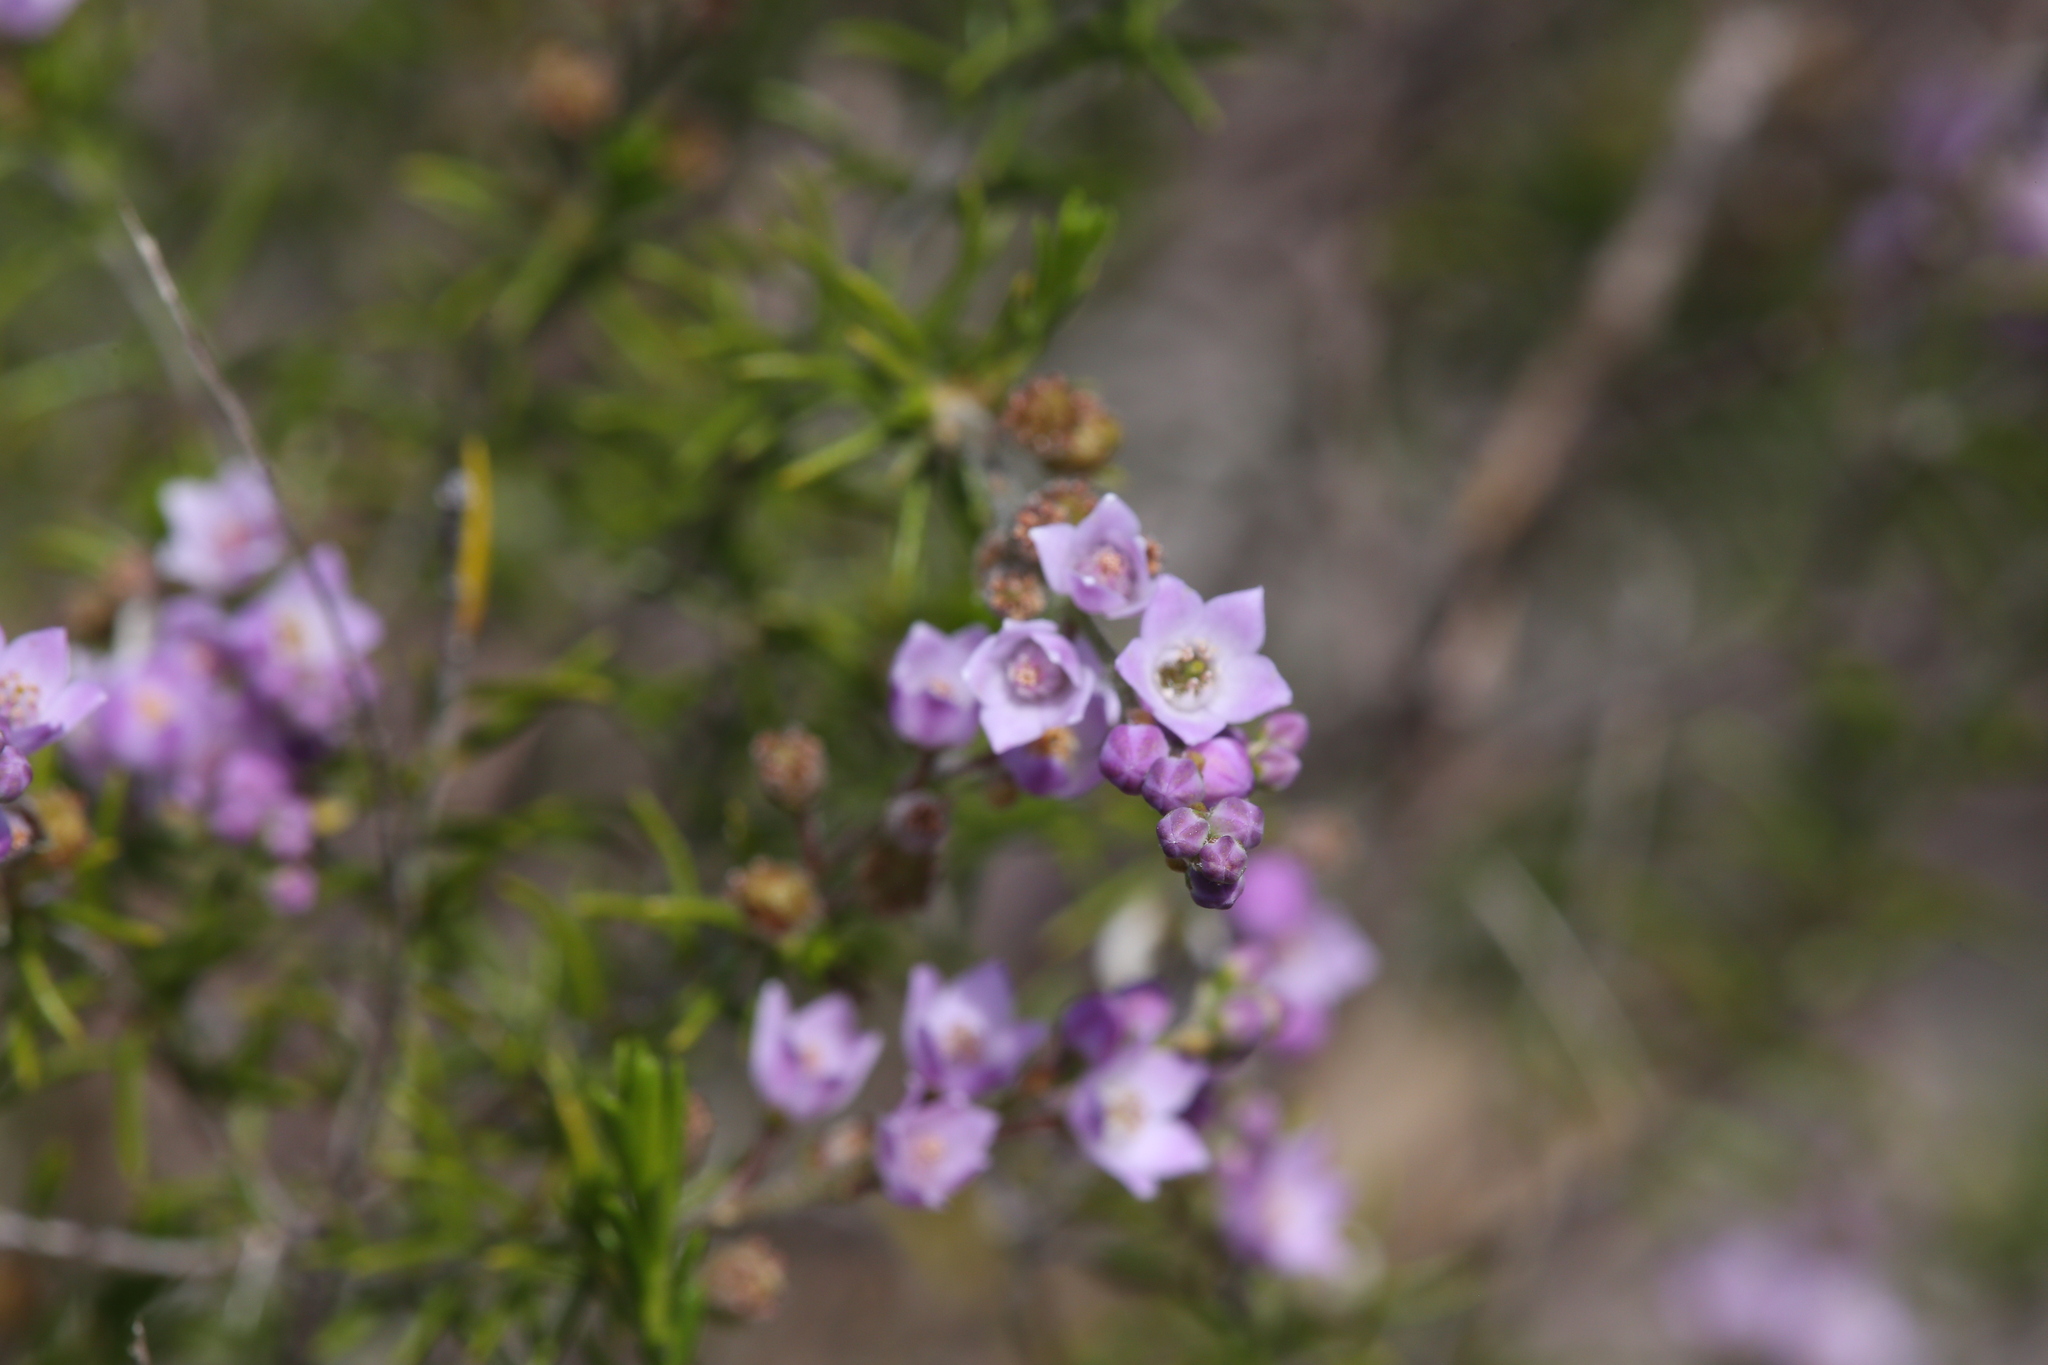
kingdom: Plantae
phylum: Tracheophyta
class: Magnoliopsida
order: Sapindales
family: Rutaceae
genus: Philotheca
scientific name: Philotheca spicata
